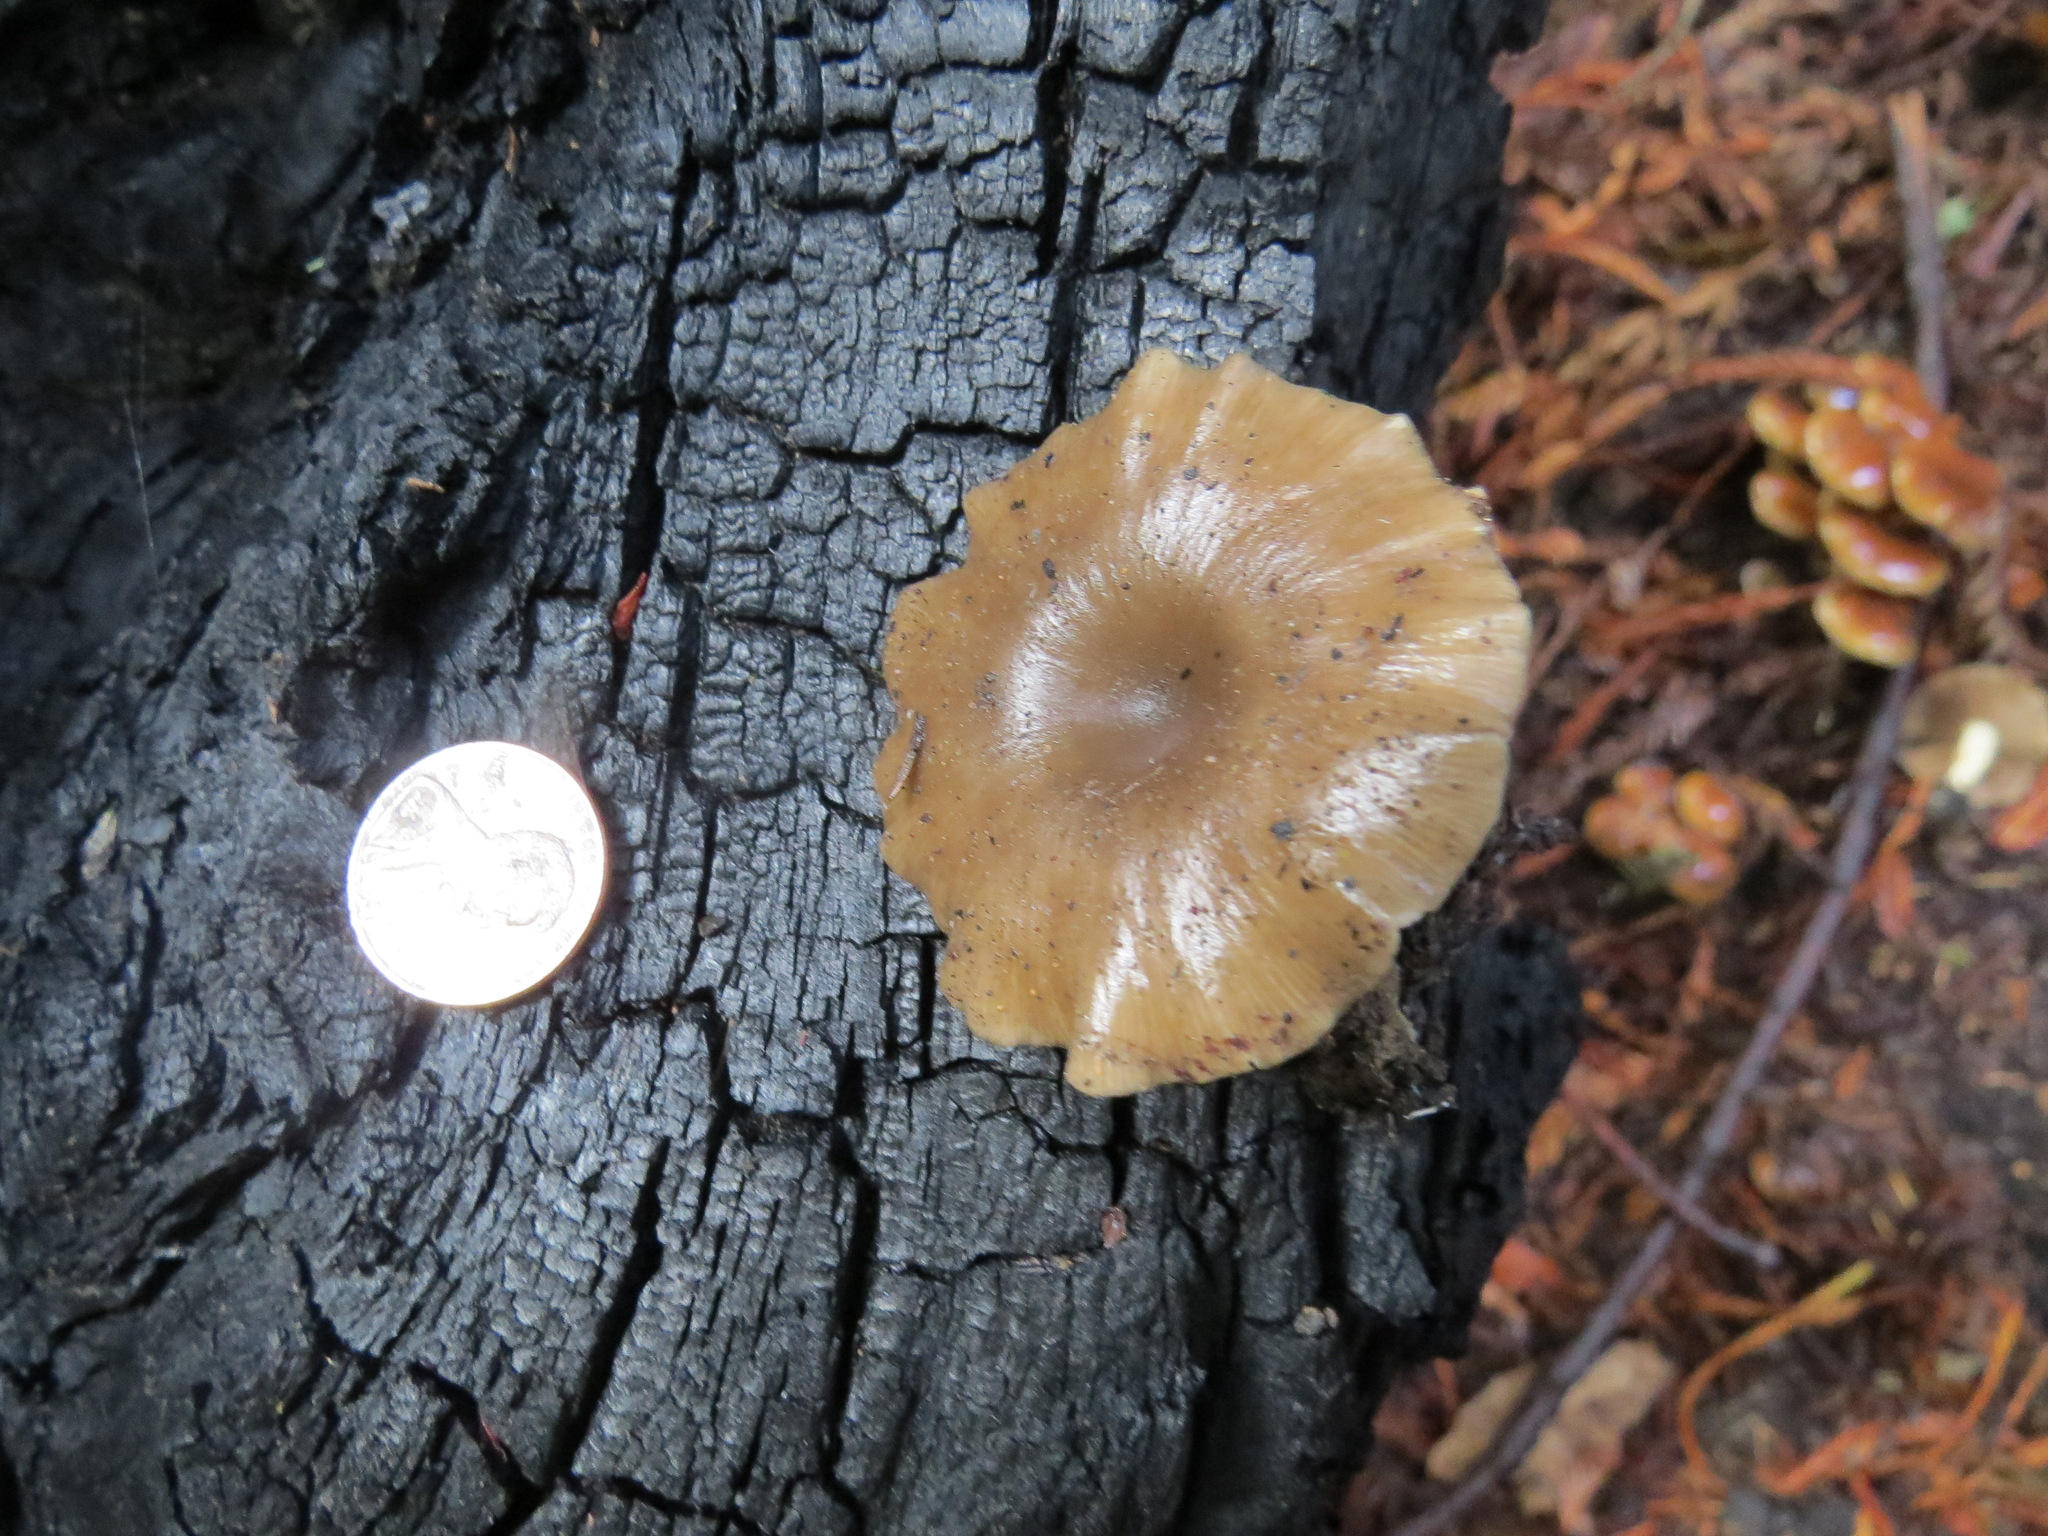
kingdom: Fungi
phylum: Basidiomycota
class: Agaricomycetes
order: Agaricales
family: Tricholomataceae
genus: Myxomphalia
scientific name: Myxomphalia maura
